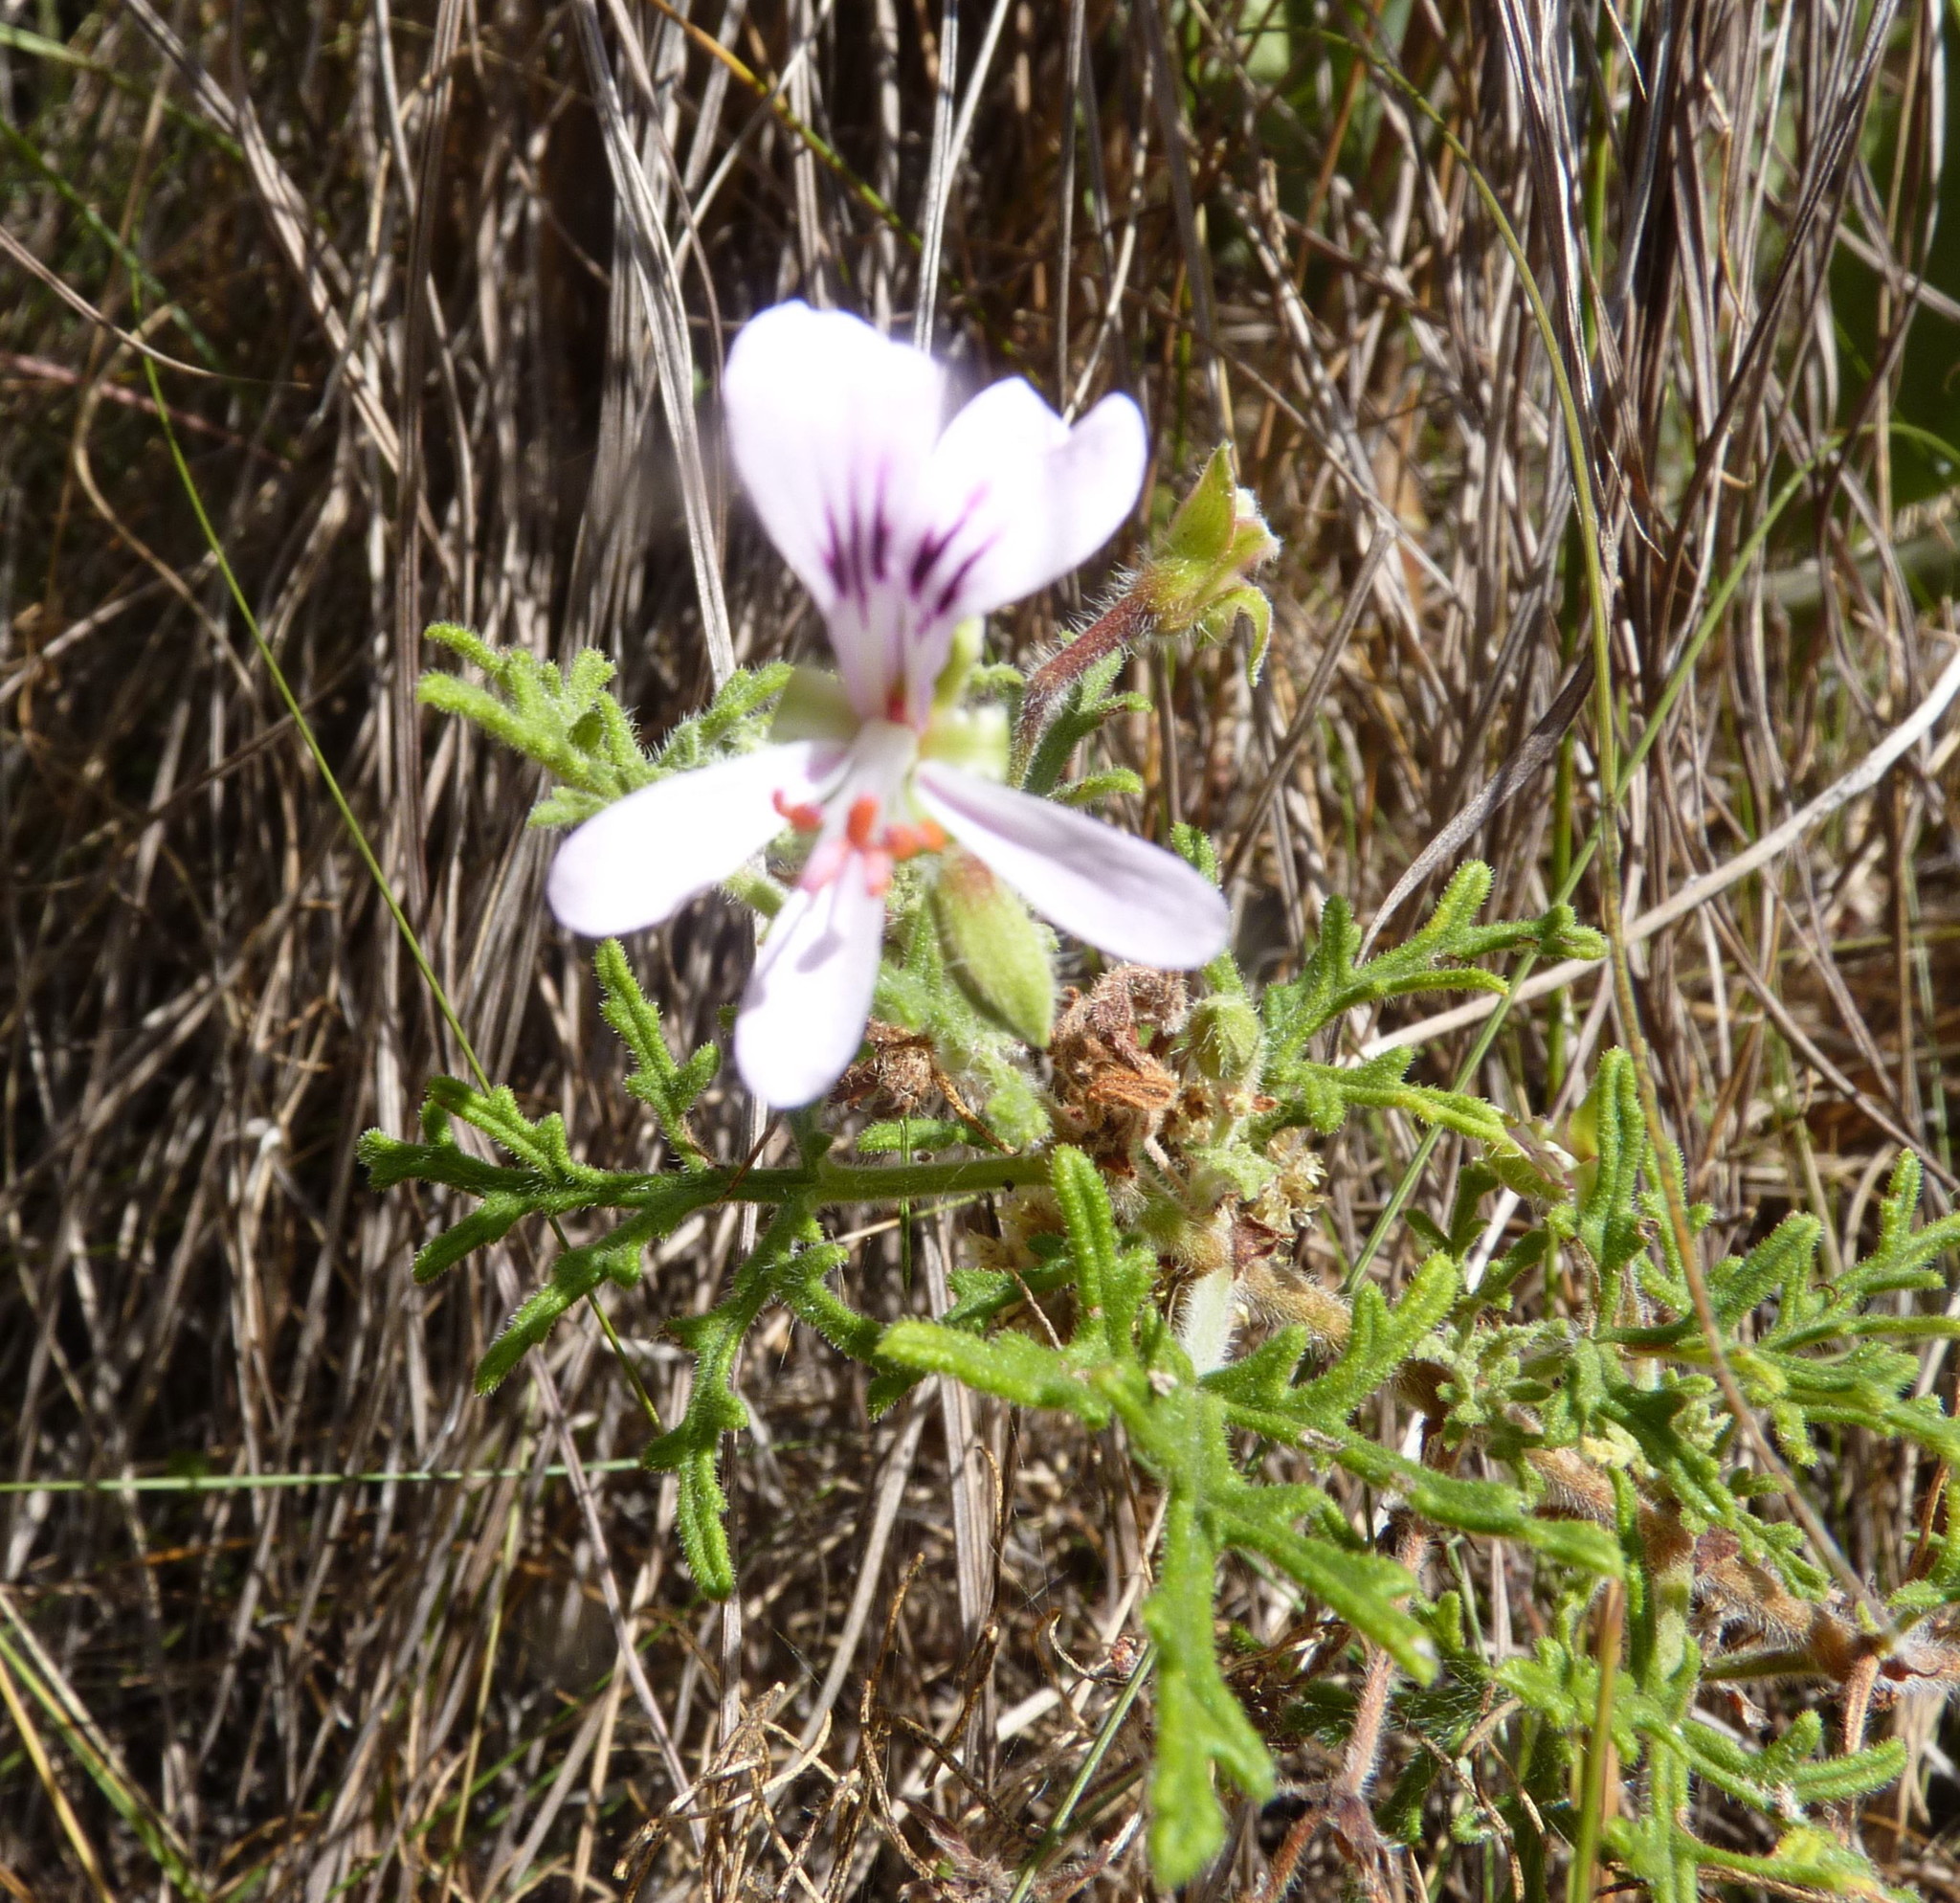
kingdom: Plantae
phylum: Tracheophyta
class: Magnoliopsida
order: Geraniales
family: Geraniaceae
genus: Pelargonium
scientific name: Pelargonium radens
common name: Rasp-leaf pelargonium
